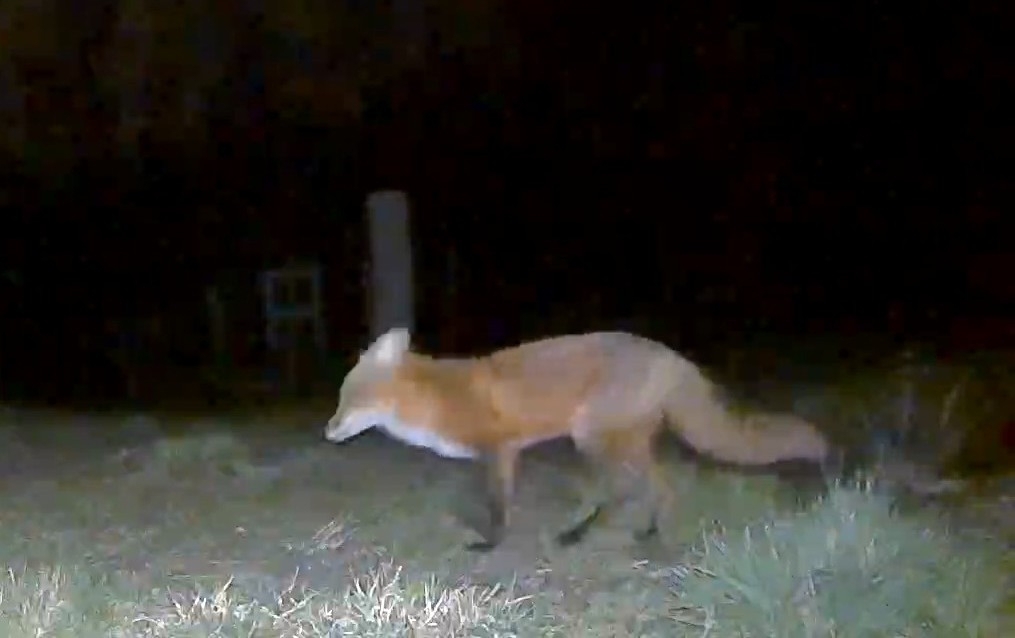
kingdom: Animalia
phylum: Chordata
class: Mammalia
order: Carnivora
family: Canidae
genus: Vulpes
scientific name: Vulpes vulpes
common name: Red fox
